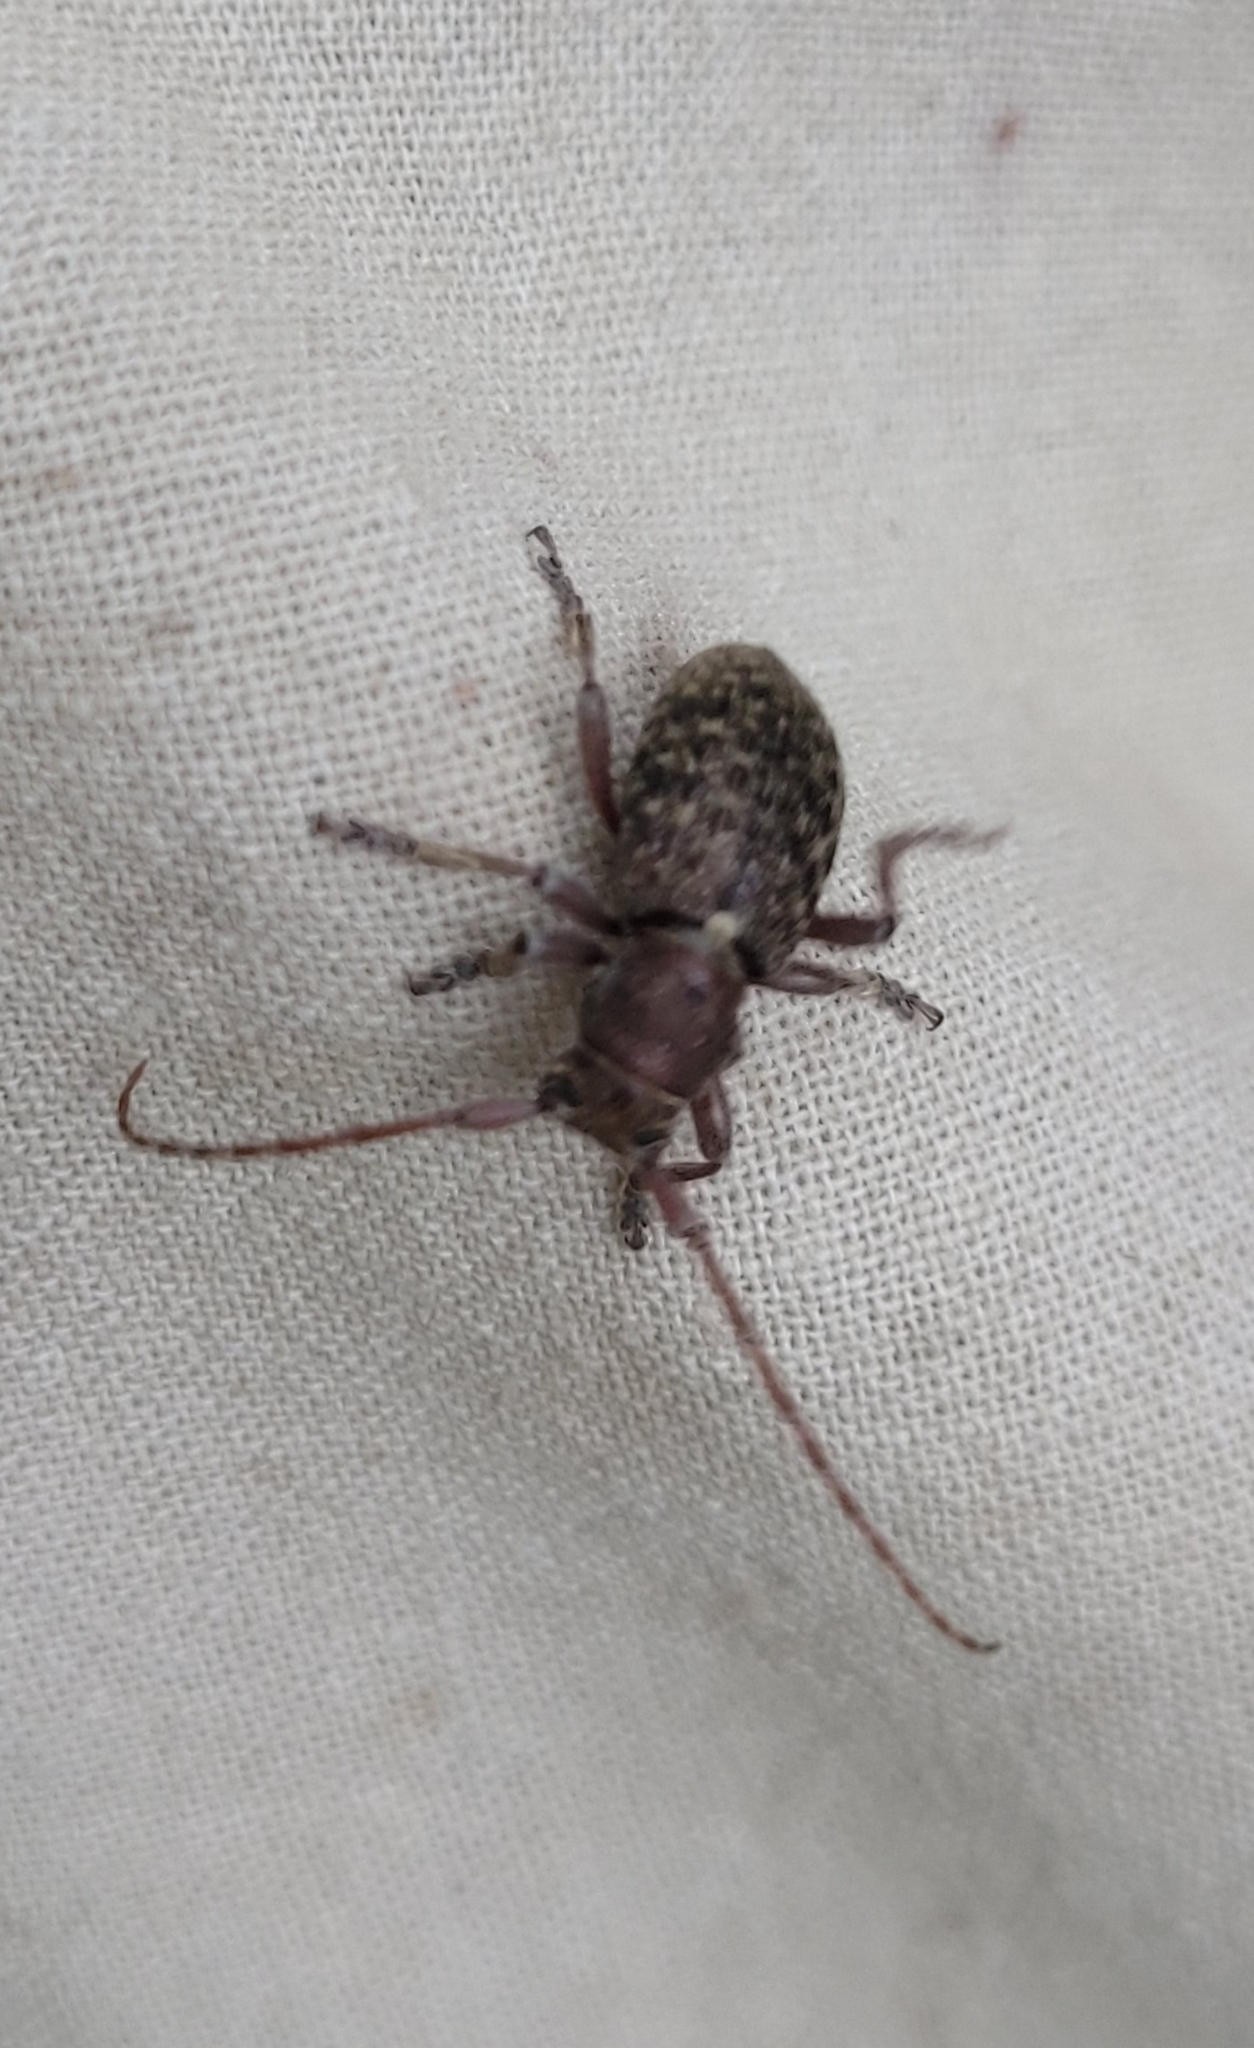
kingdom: Animalia
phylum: Arthropoda
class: Insecta
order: Coleoptera
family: Cerambycidae
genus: Plectrura
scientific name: Plectrura metallica
